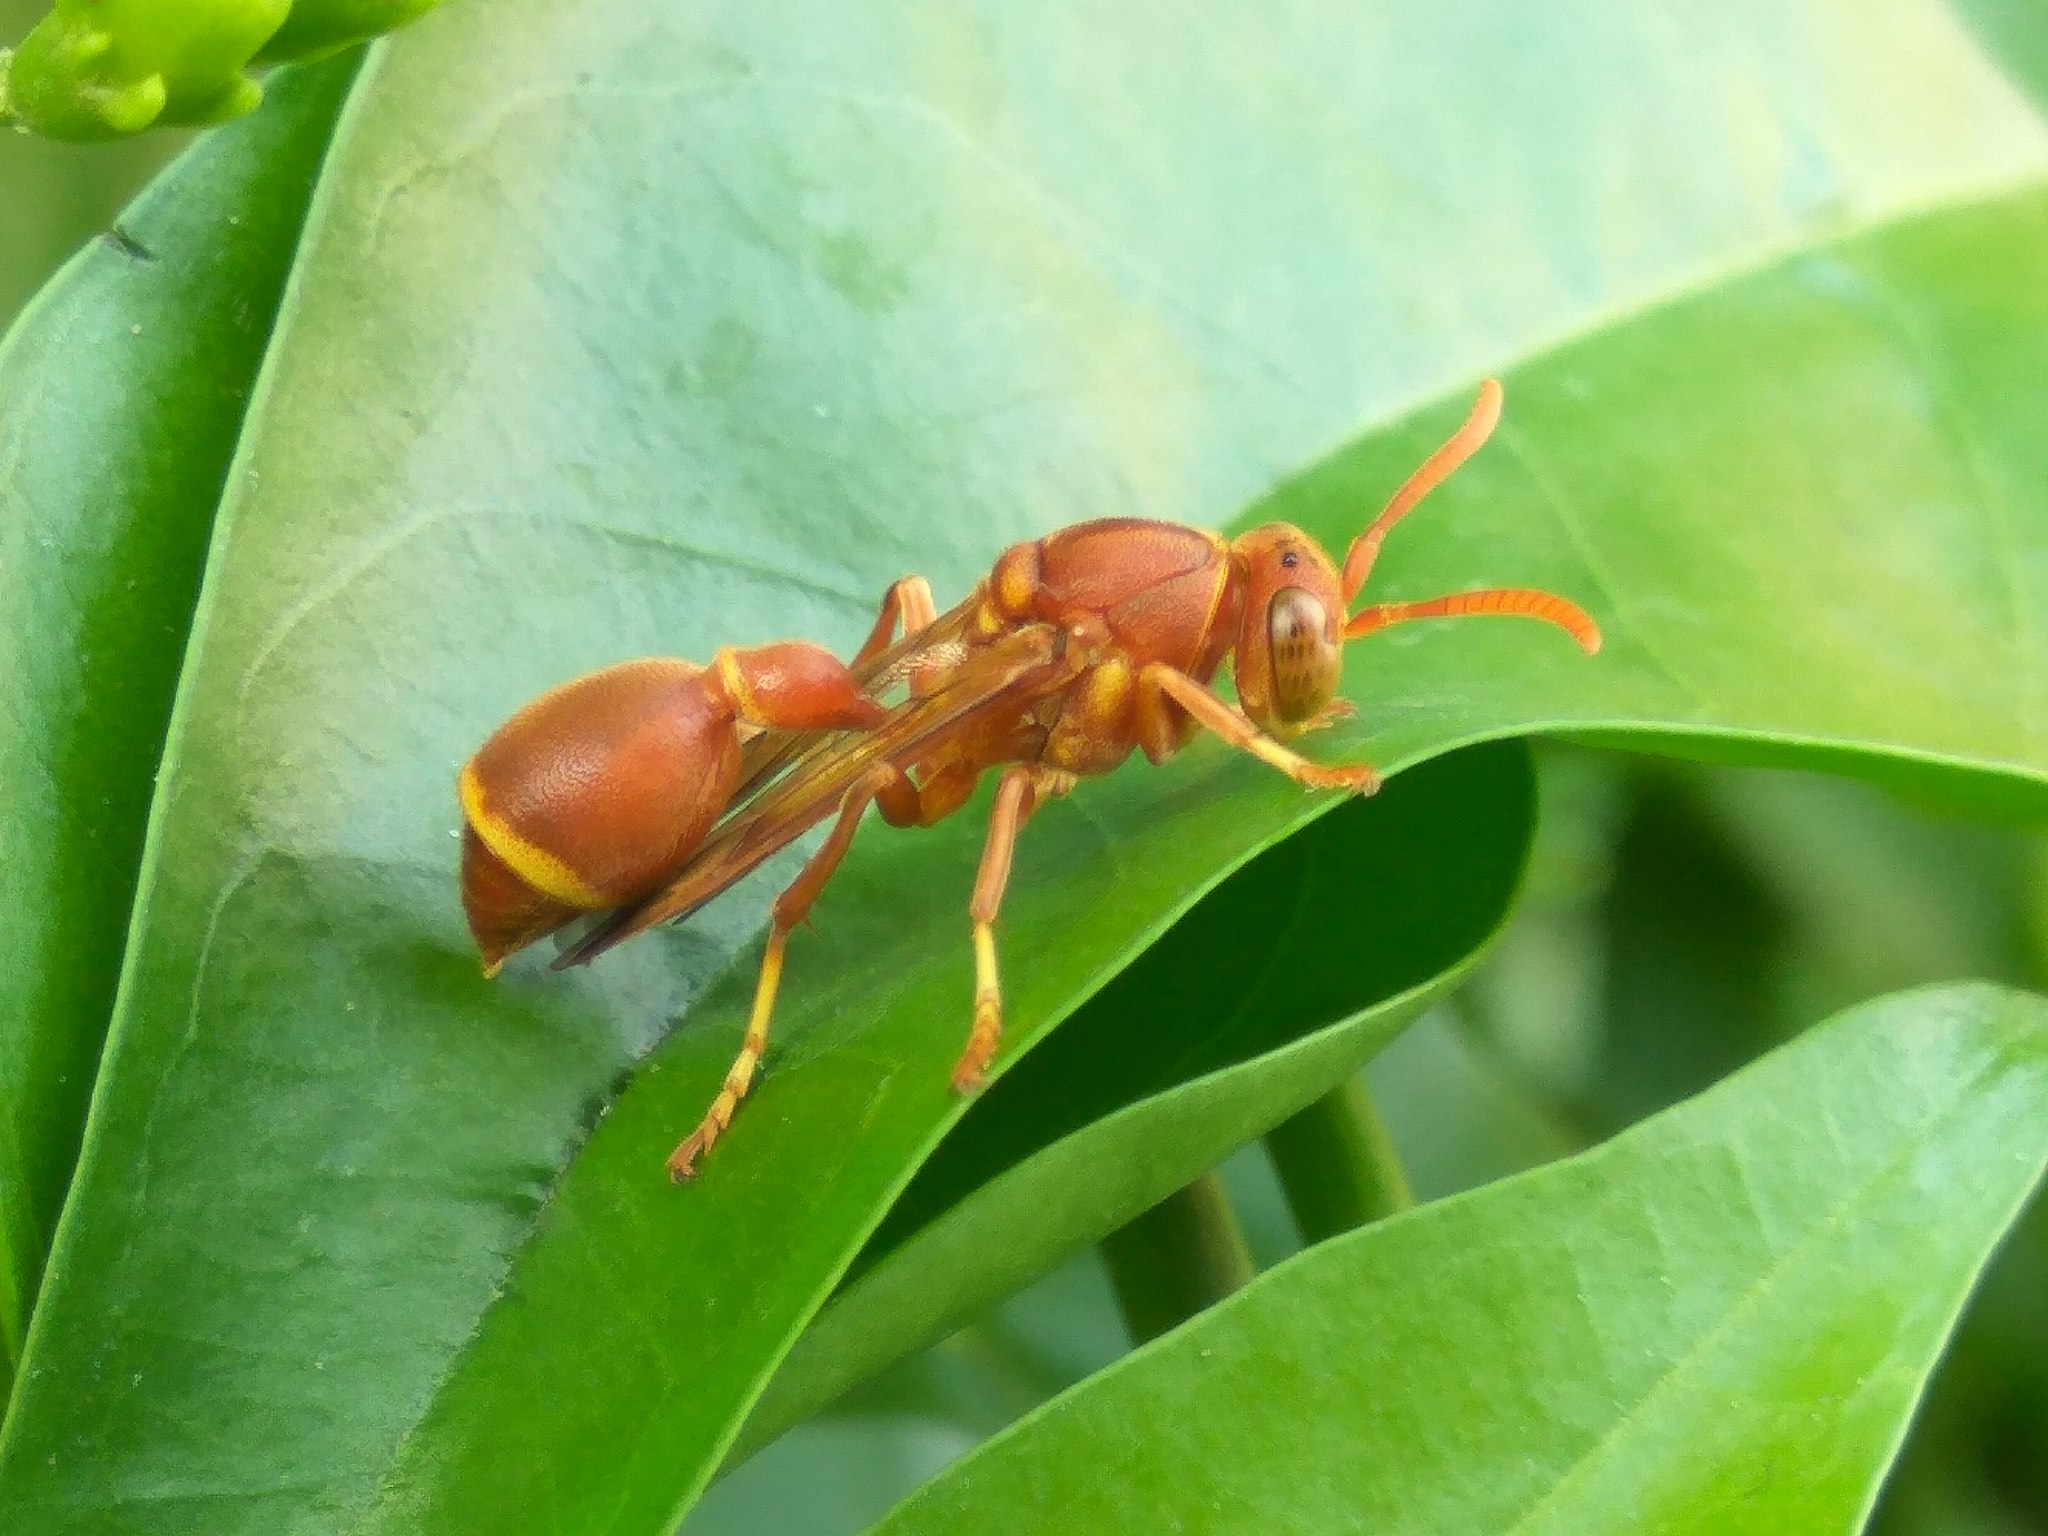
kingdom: Animalia
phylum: Arthropoda
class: Insecta
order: Hymenoptera
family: Vespidae
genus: Ropalidia
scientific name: Ropalidia marginata
